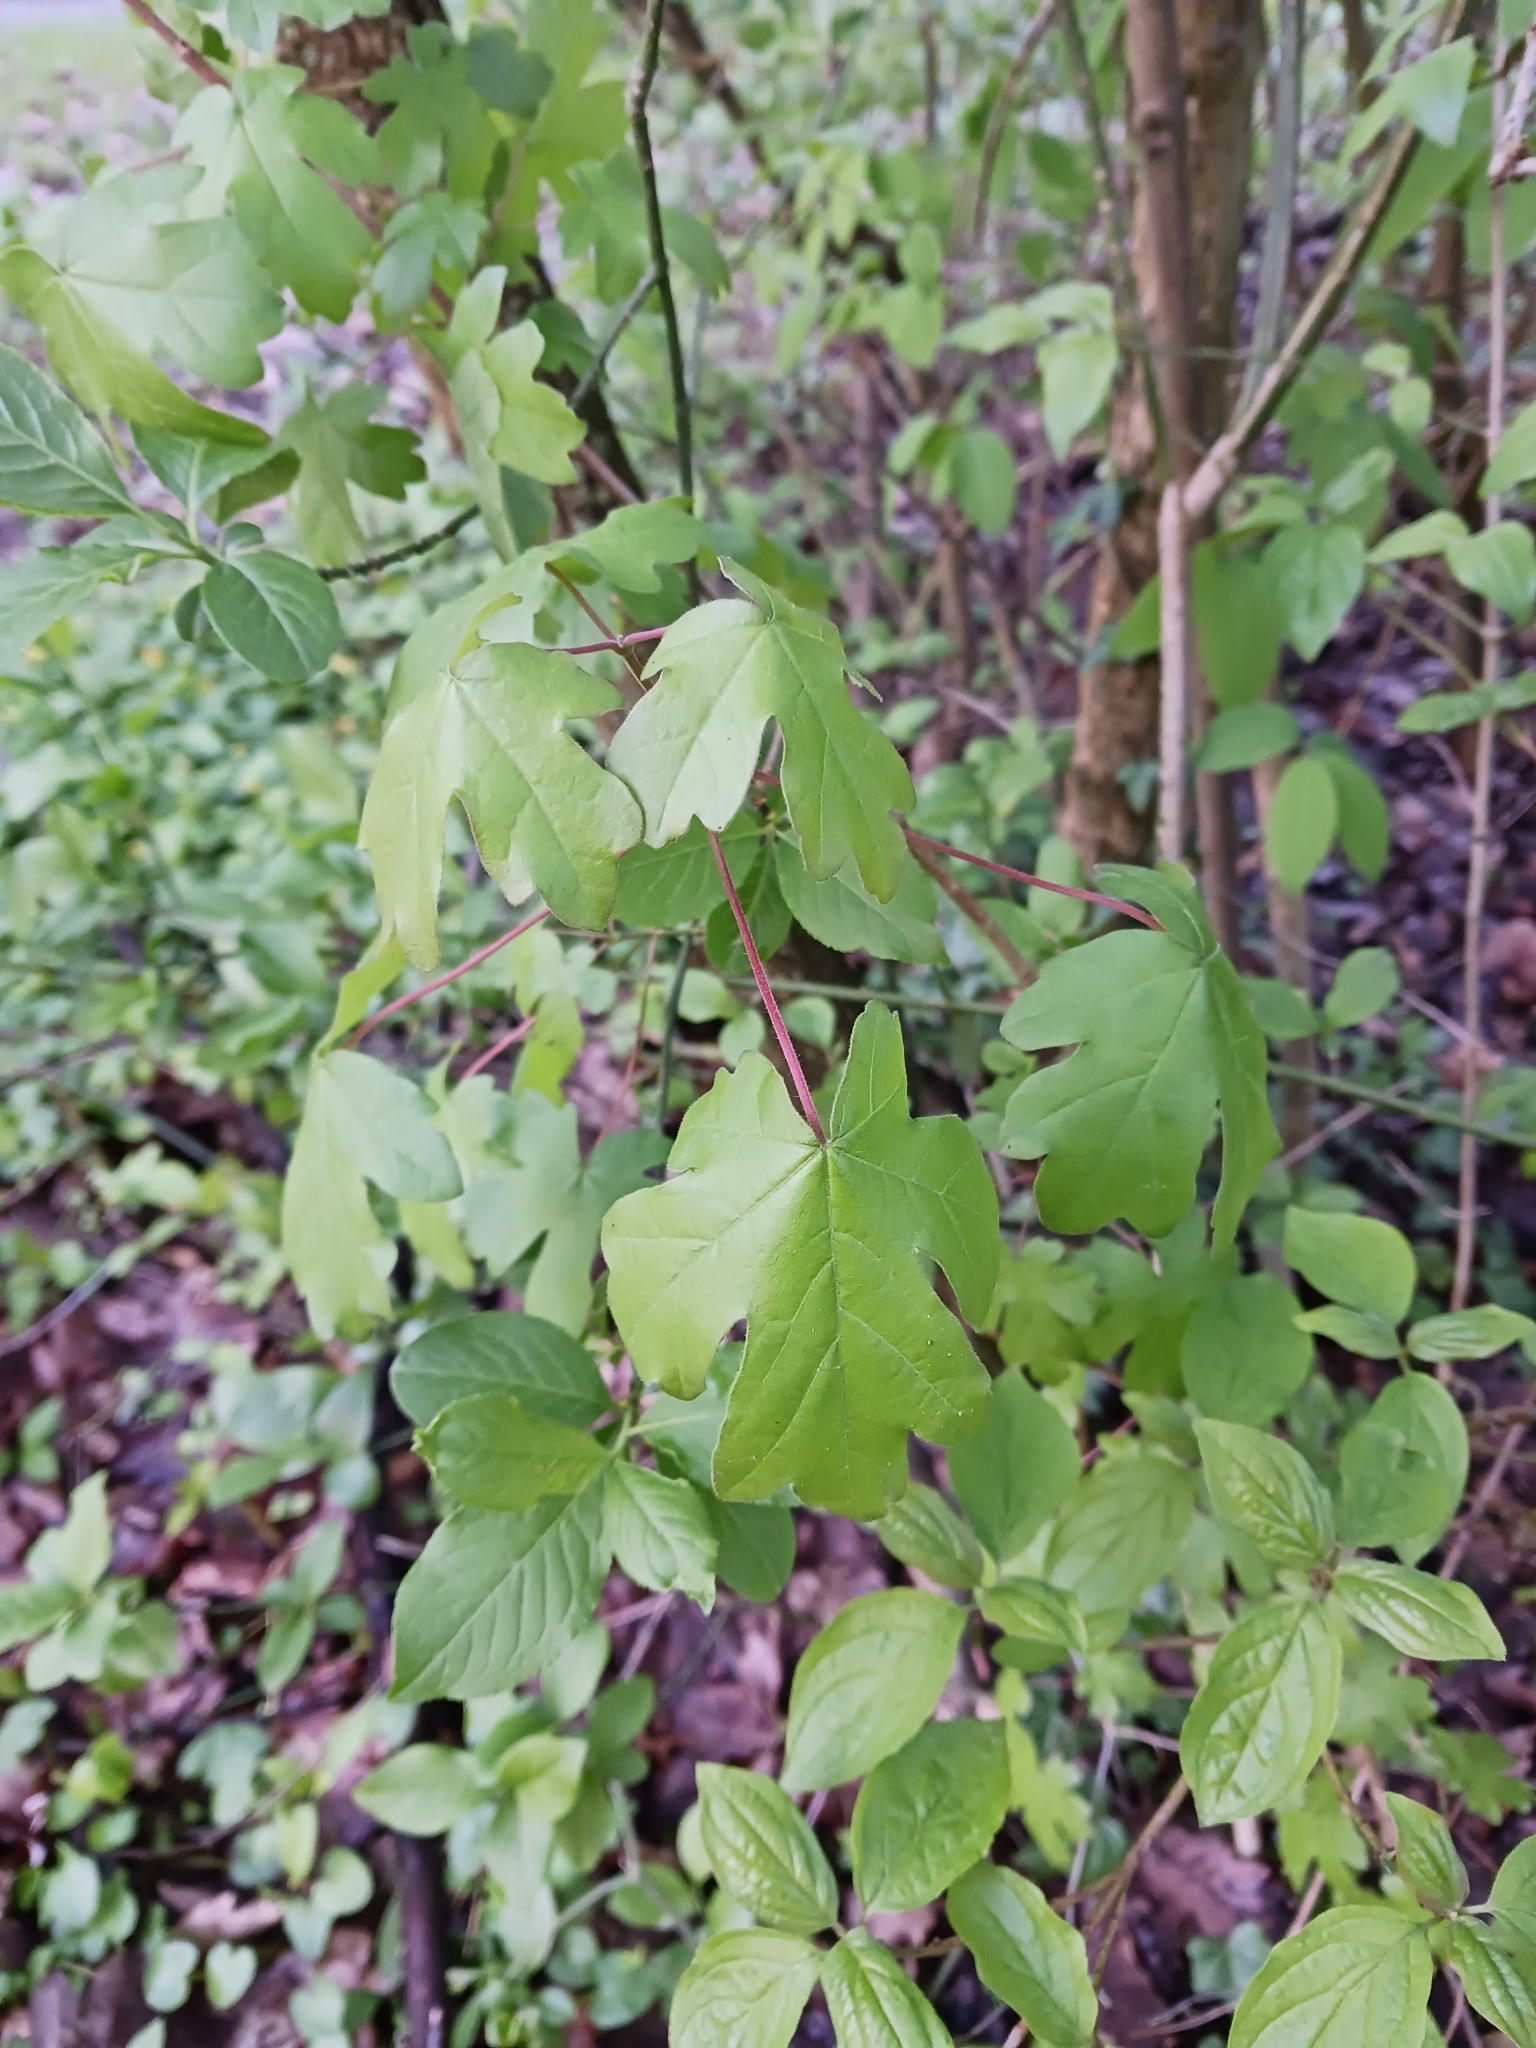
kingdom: Plantae
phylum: Tracheophyta
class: Magnoliopsida
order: Sapindales
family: Sapindaceae
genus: Acer
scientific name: Acer campestre
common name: Field maple
